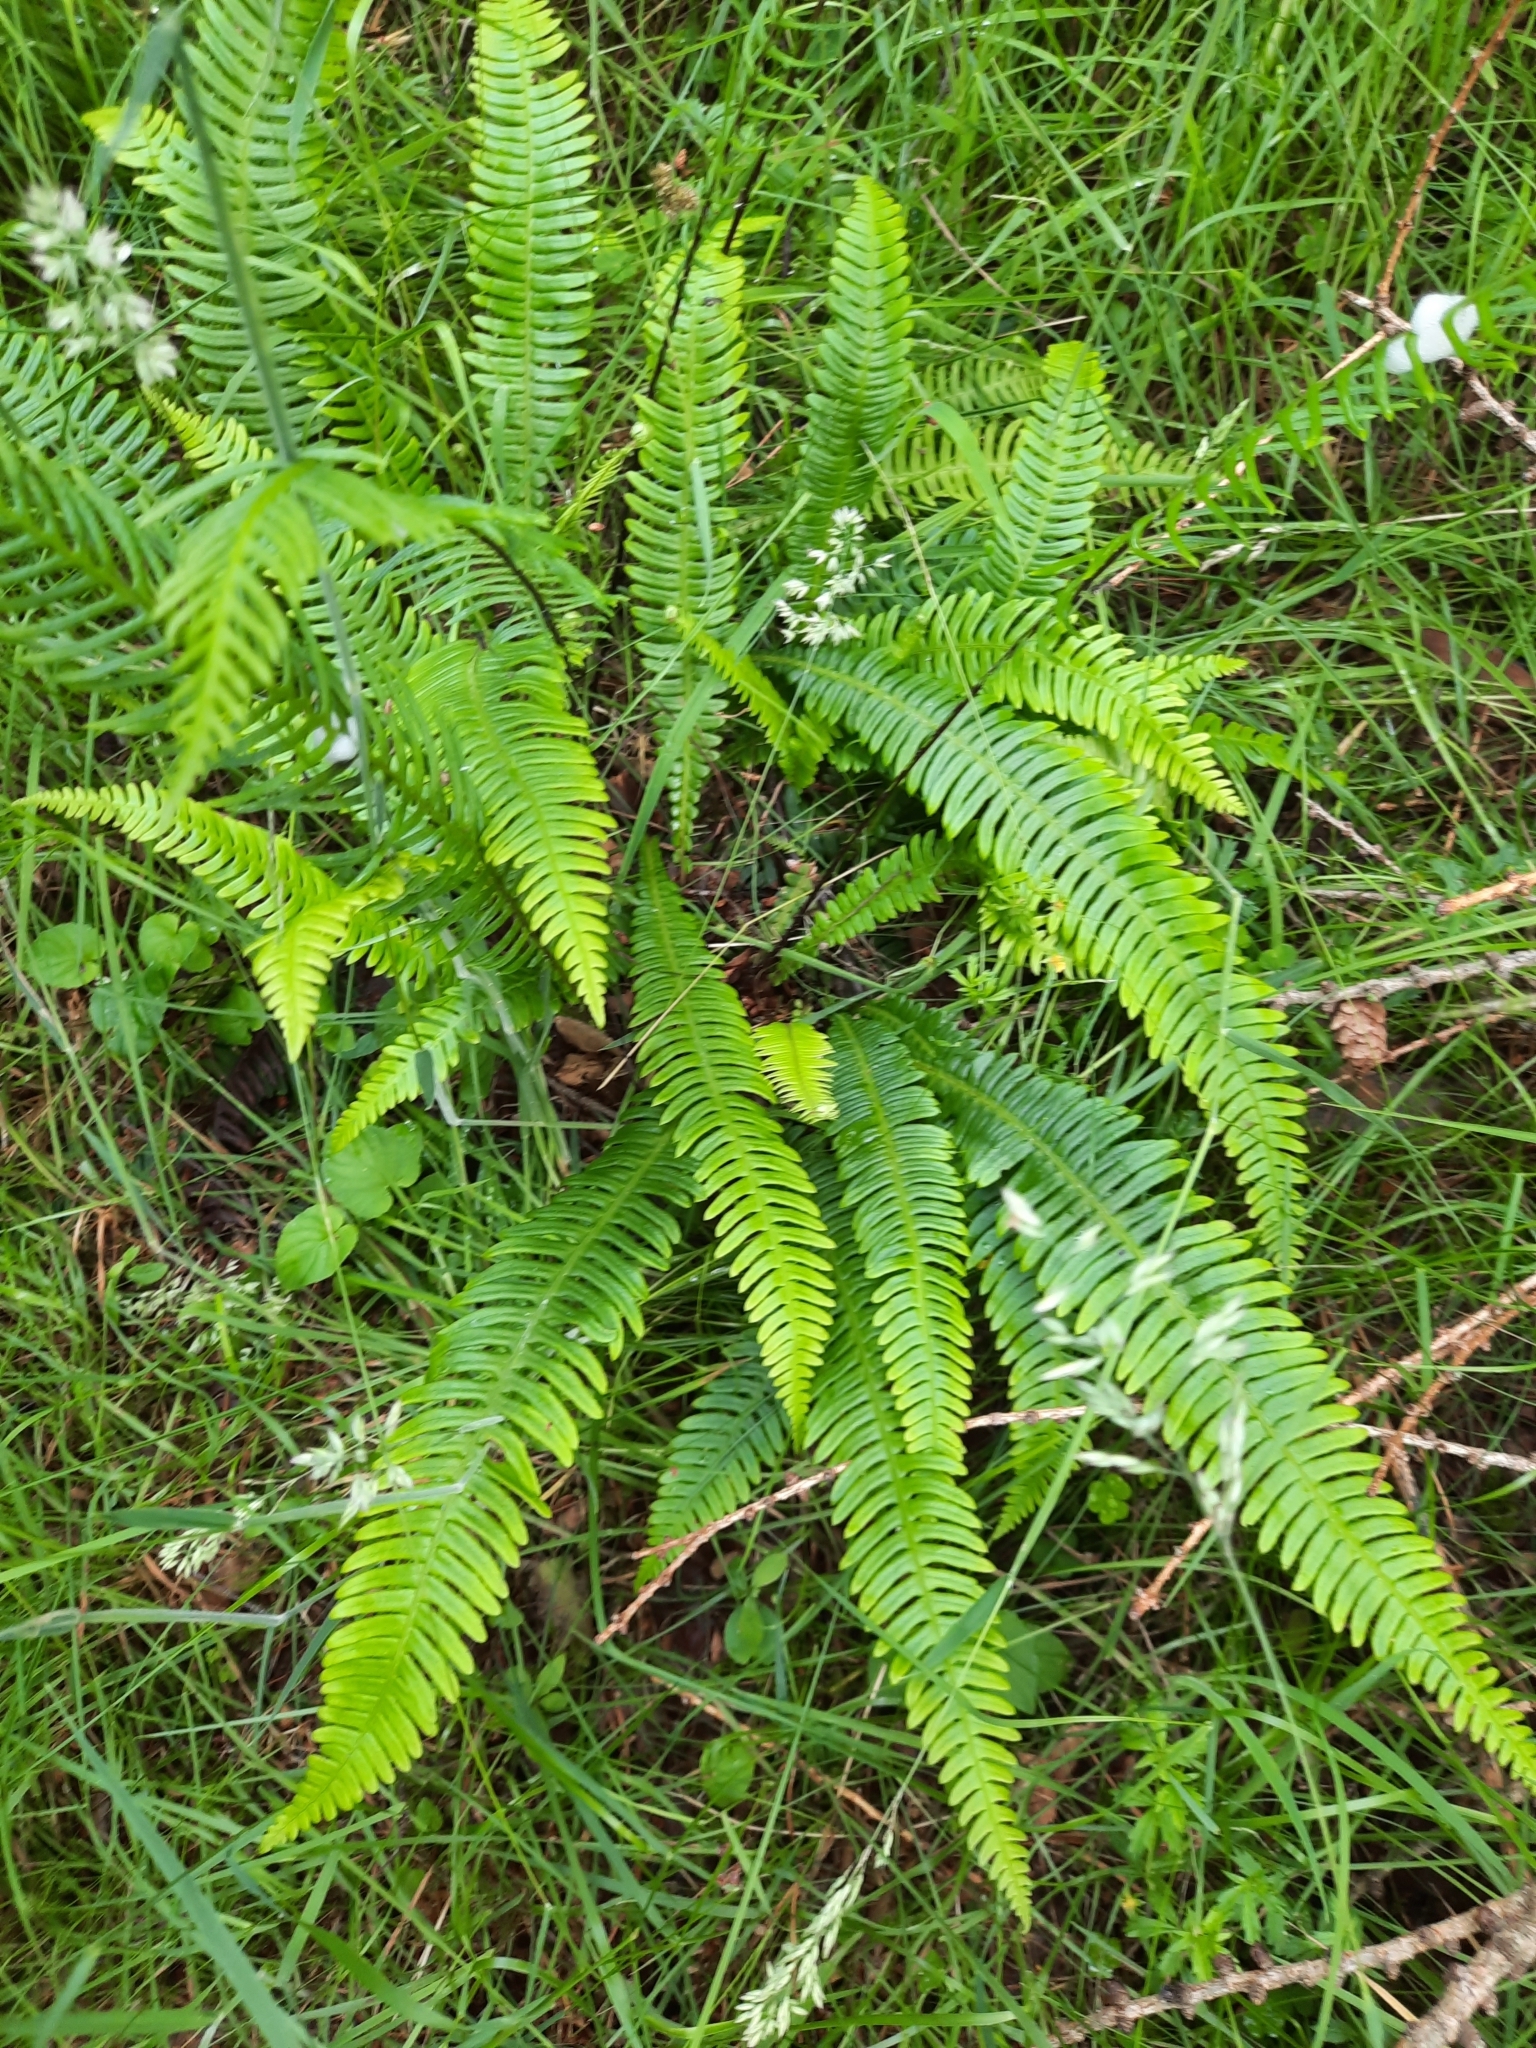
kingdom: Plantae
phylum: Tracheophyta
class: Polypodiopsida
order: Polypodiales
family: Blechnaceae
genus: Struthiopteris
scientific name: Struthiopteris spicant
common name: Deer fern
